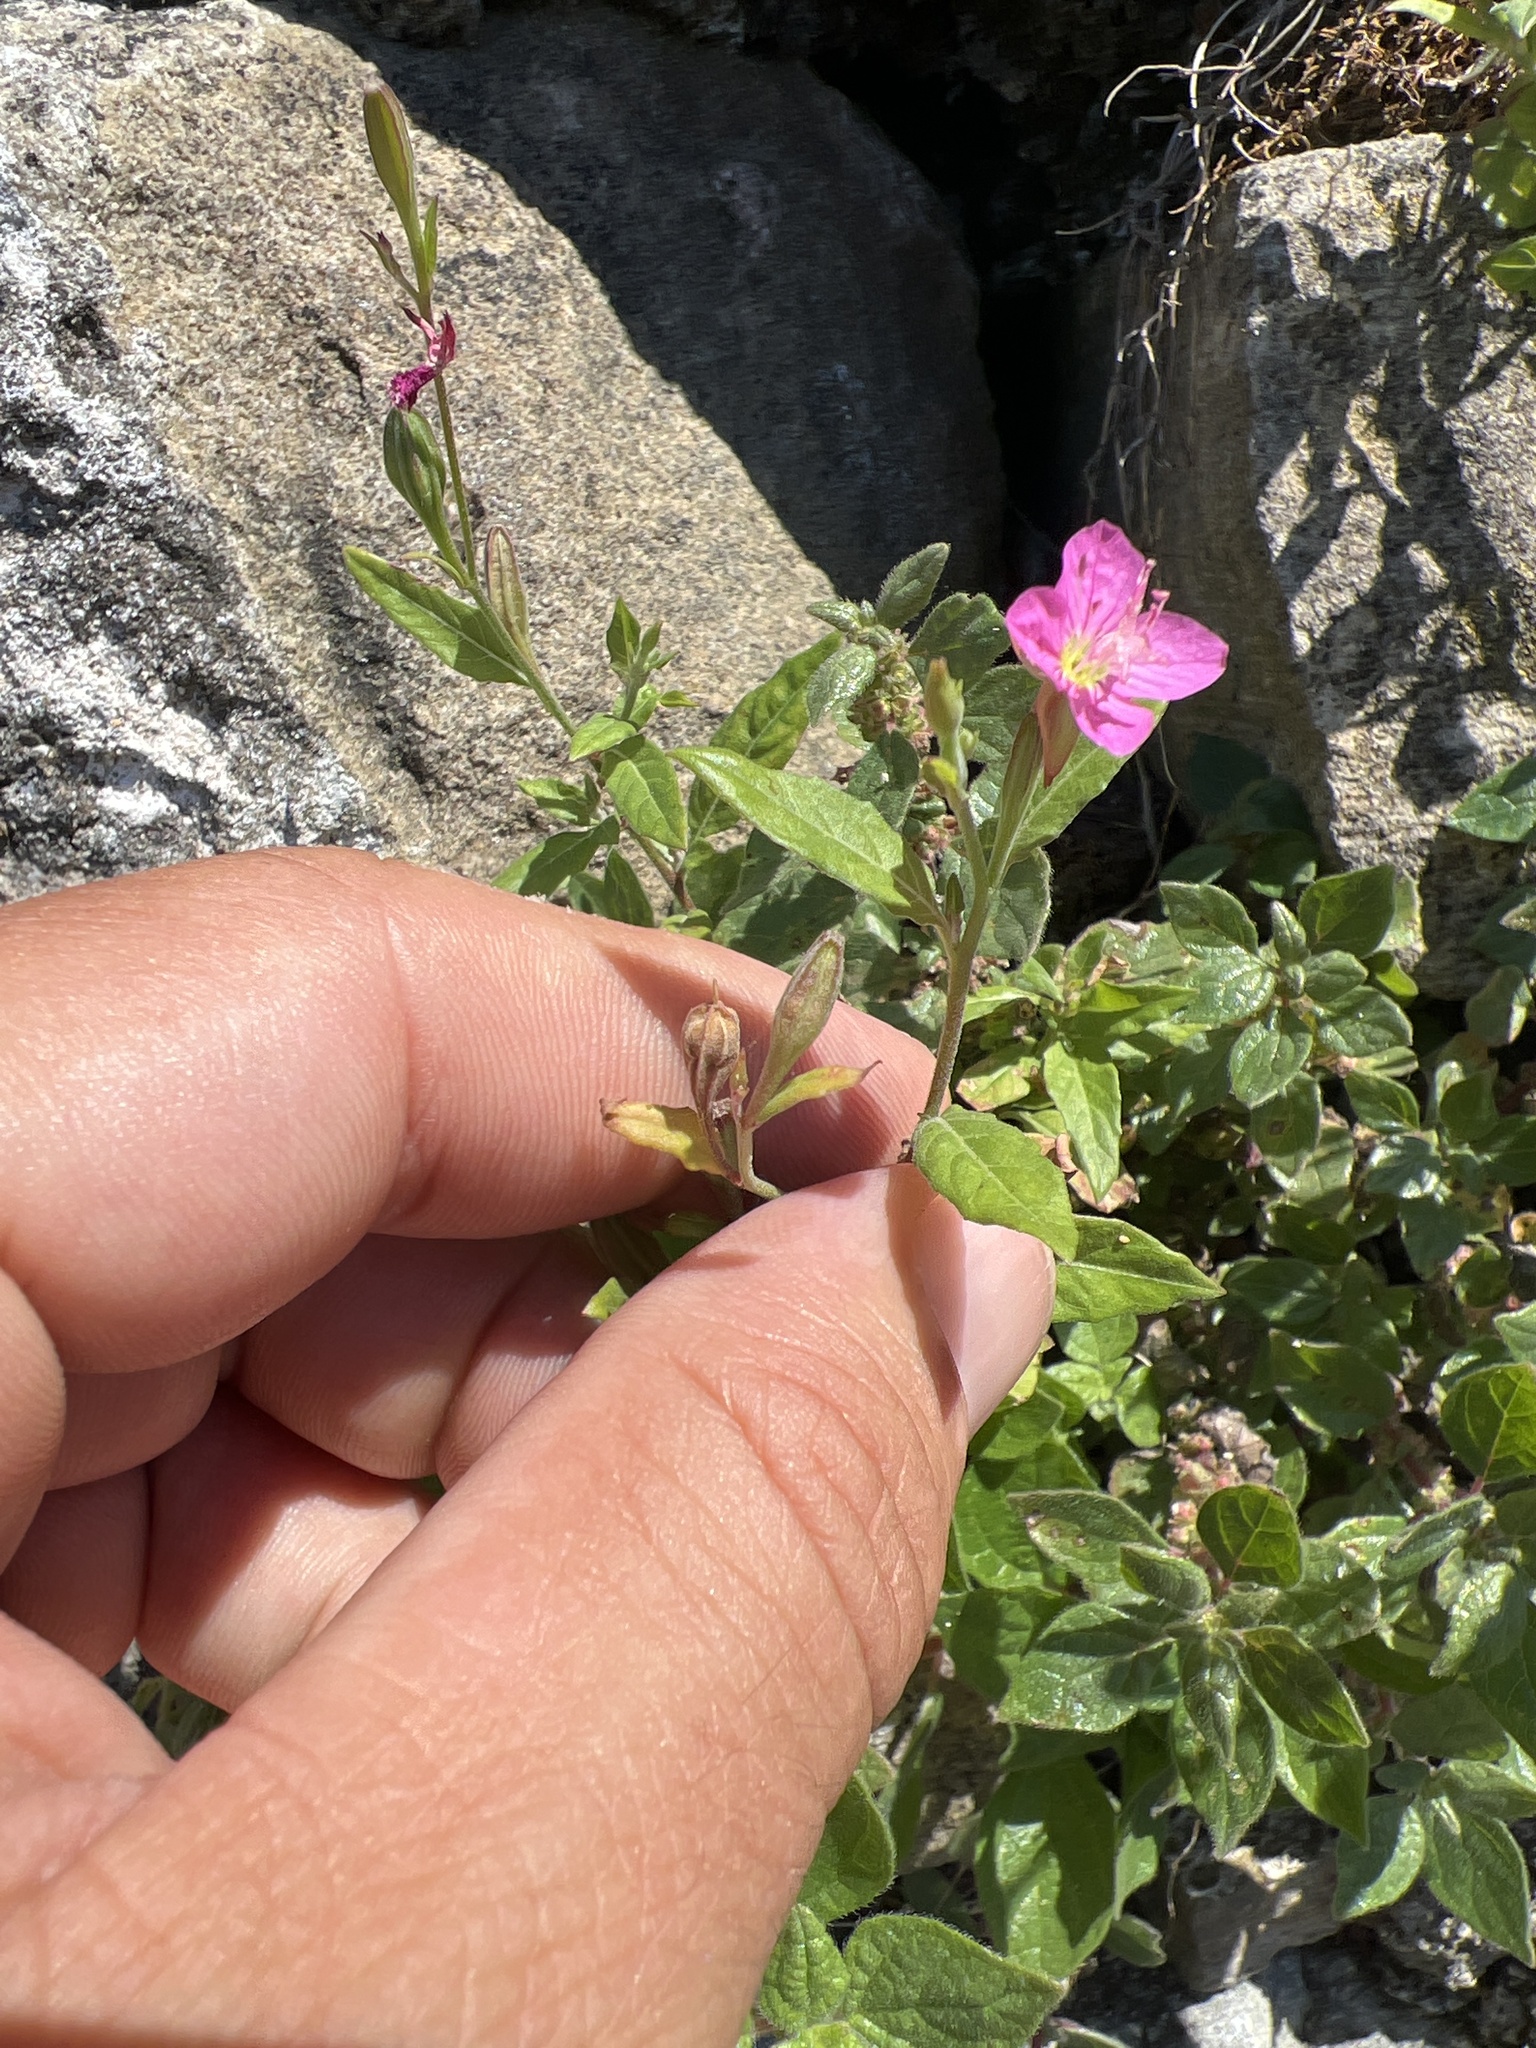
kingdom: Plantae
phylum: Tracheophyta
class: Magnoliopsida
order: Myrtales
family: Onagraceae
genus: Oenothera
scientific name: Oenothera rosea
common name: Rosy evening-primrose
